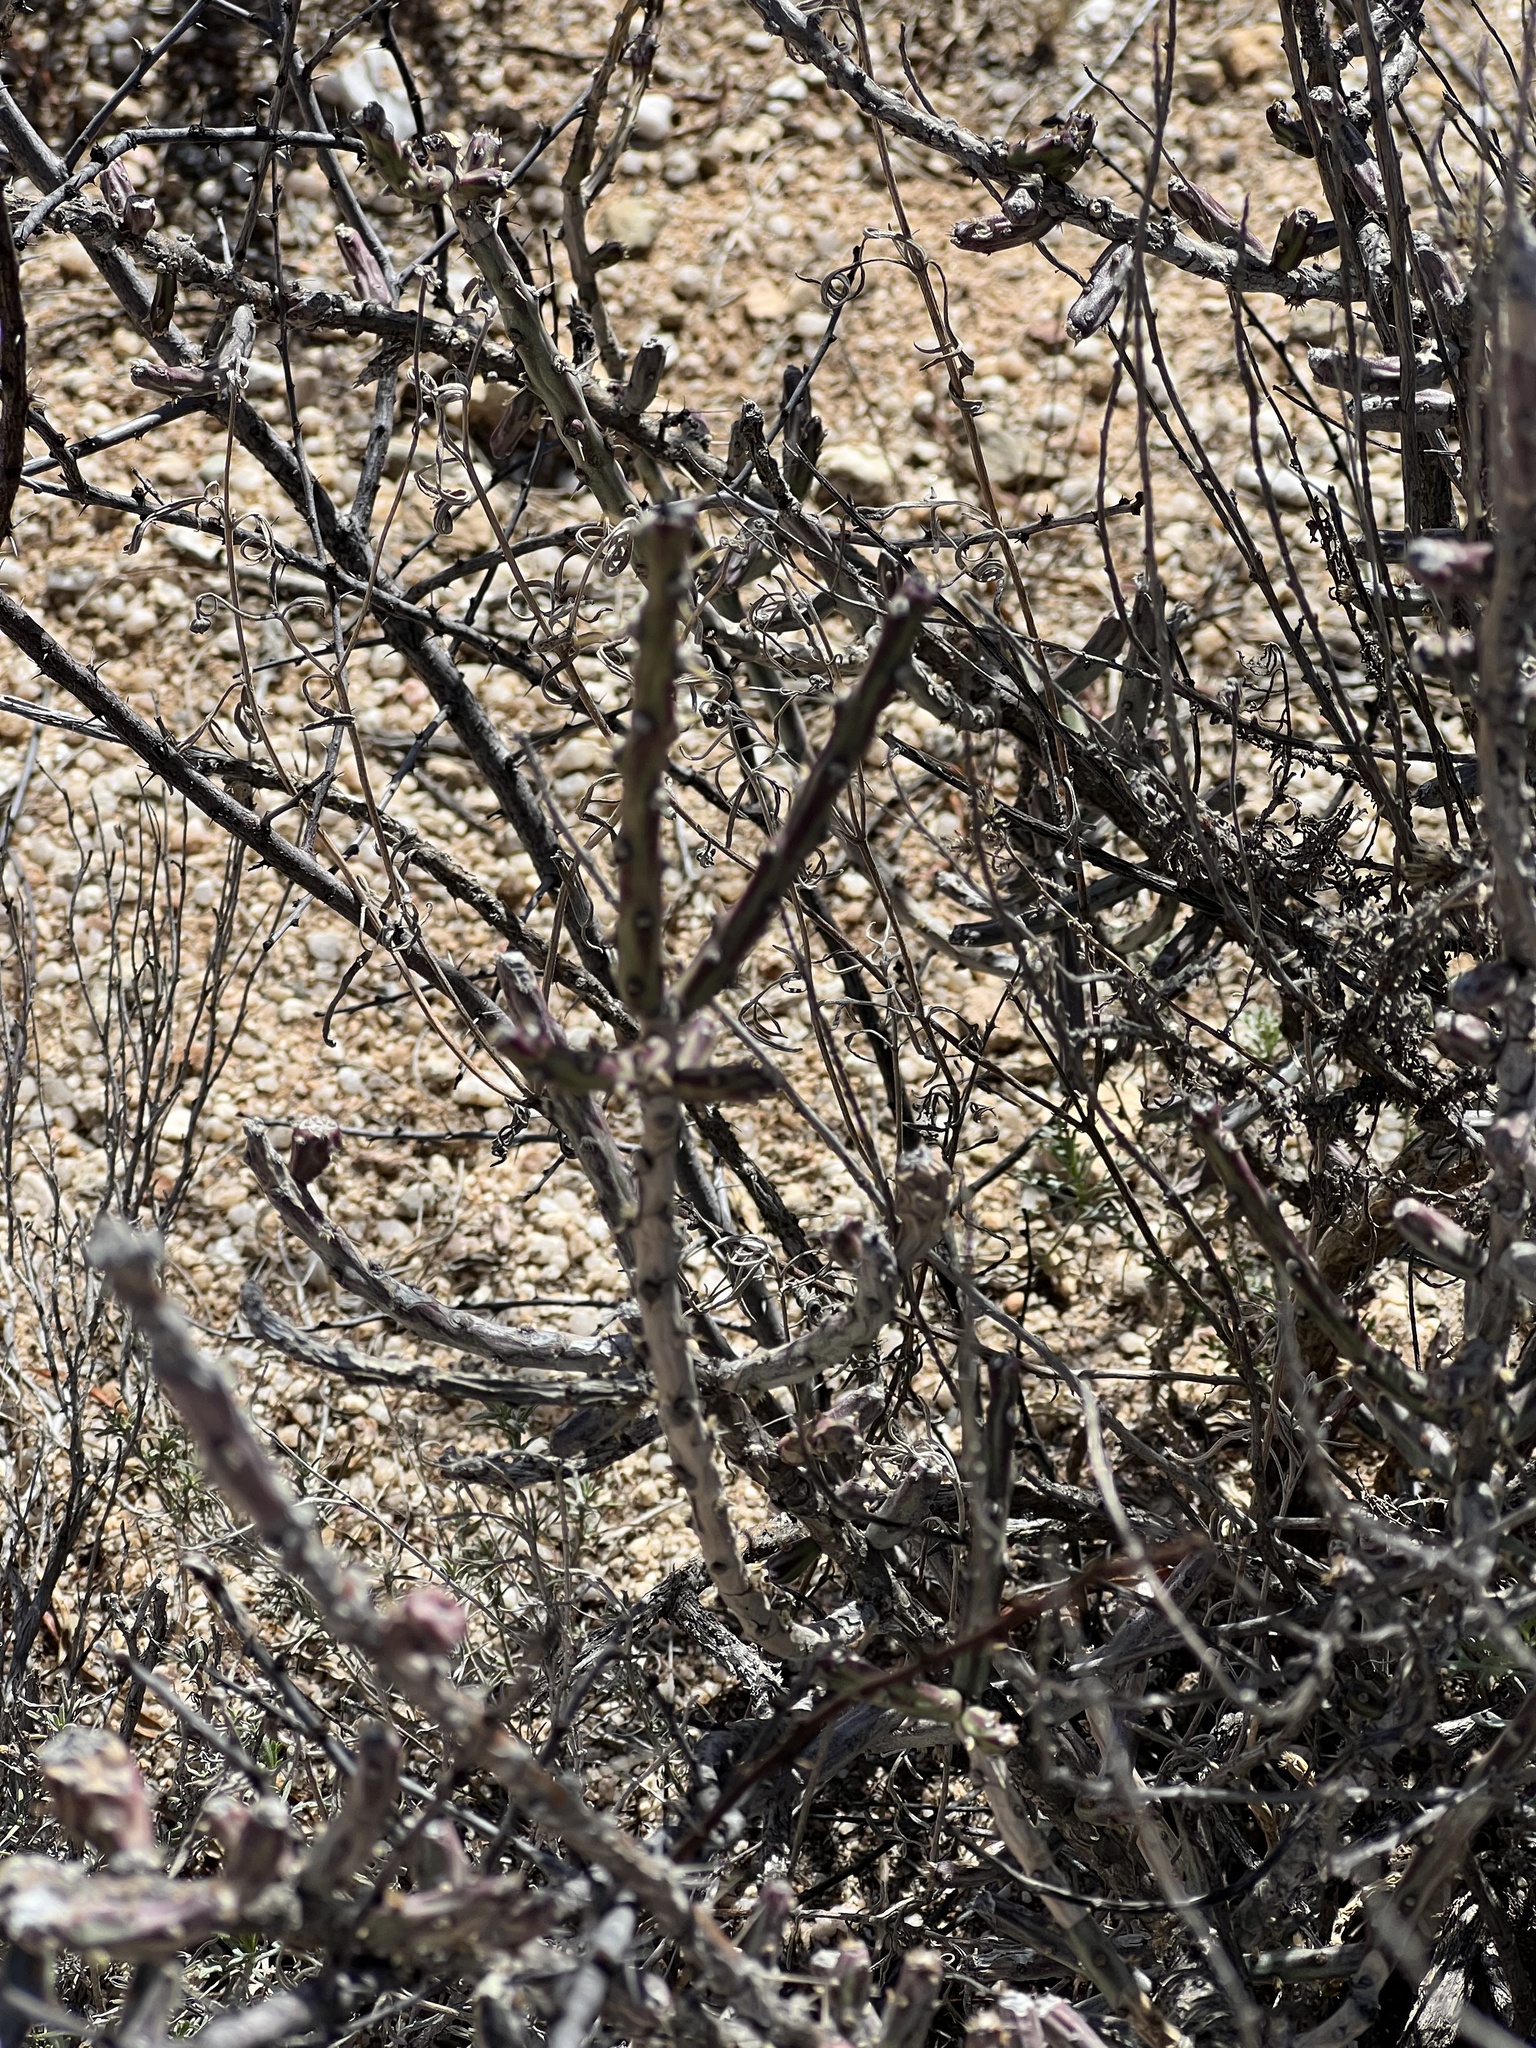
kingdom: Plantae
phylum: Tracheophyta
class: Magnoliopsida
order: Caryophyllales
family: Cactaceae
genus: Cylindropuntia
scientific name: Cylindropuntia leptocaulis
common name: Christmas cactus
